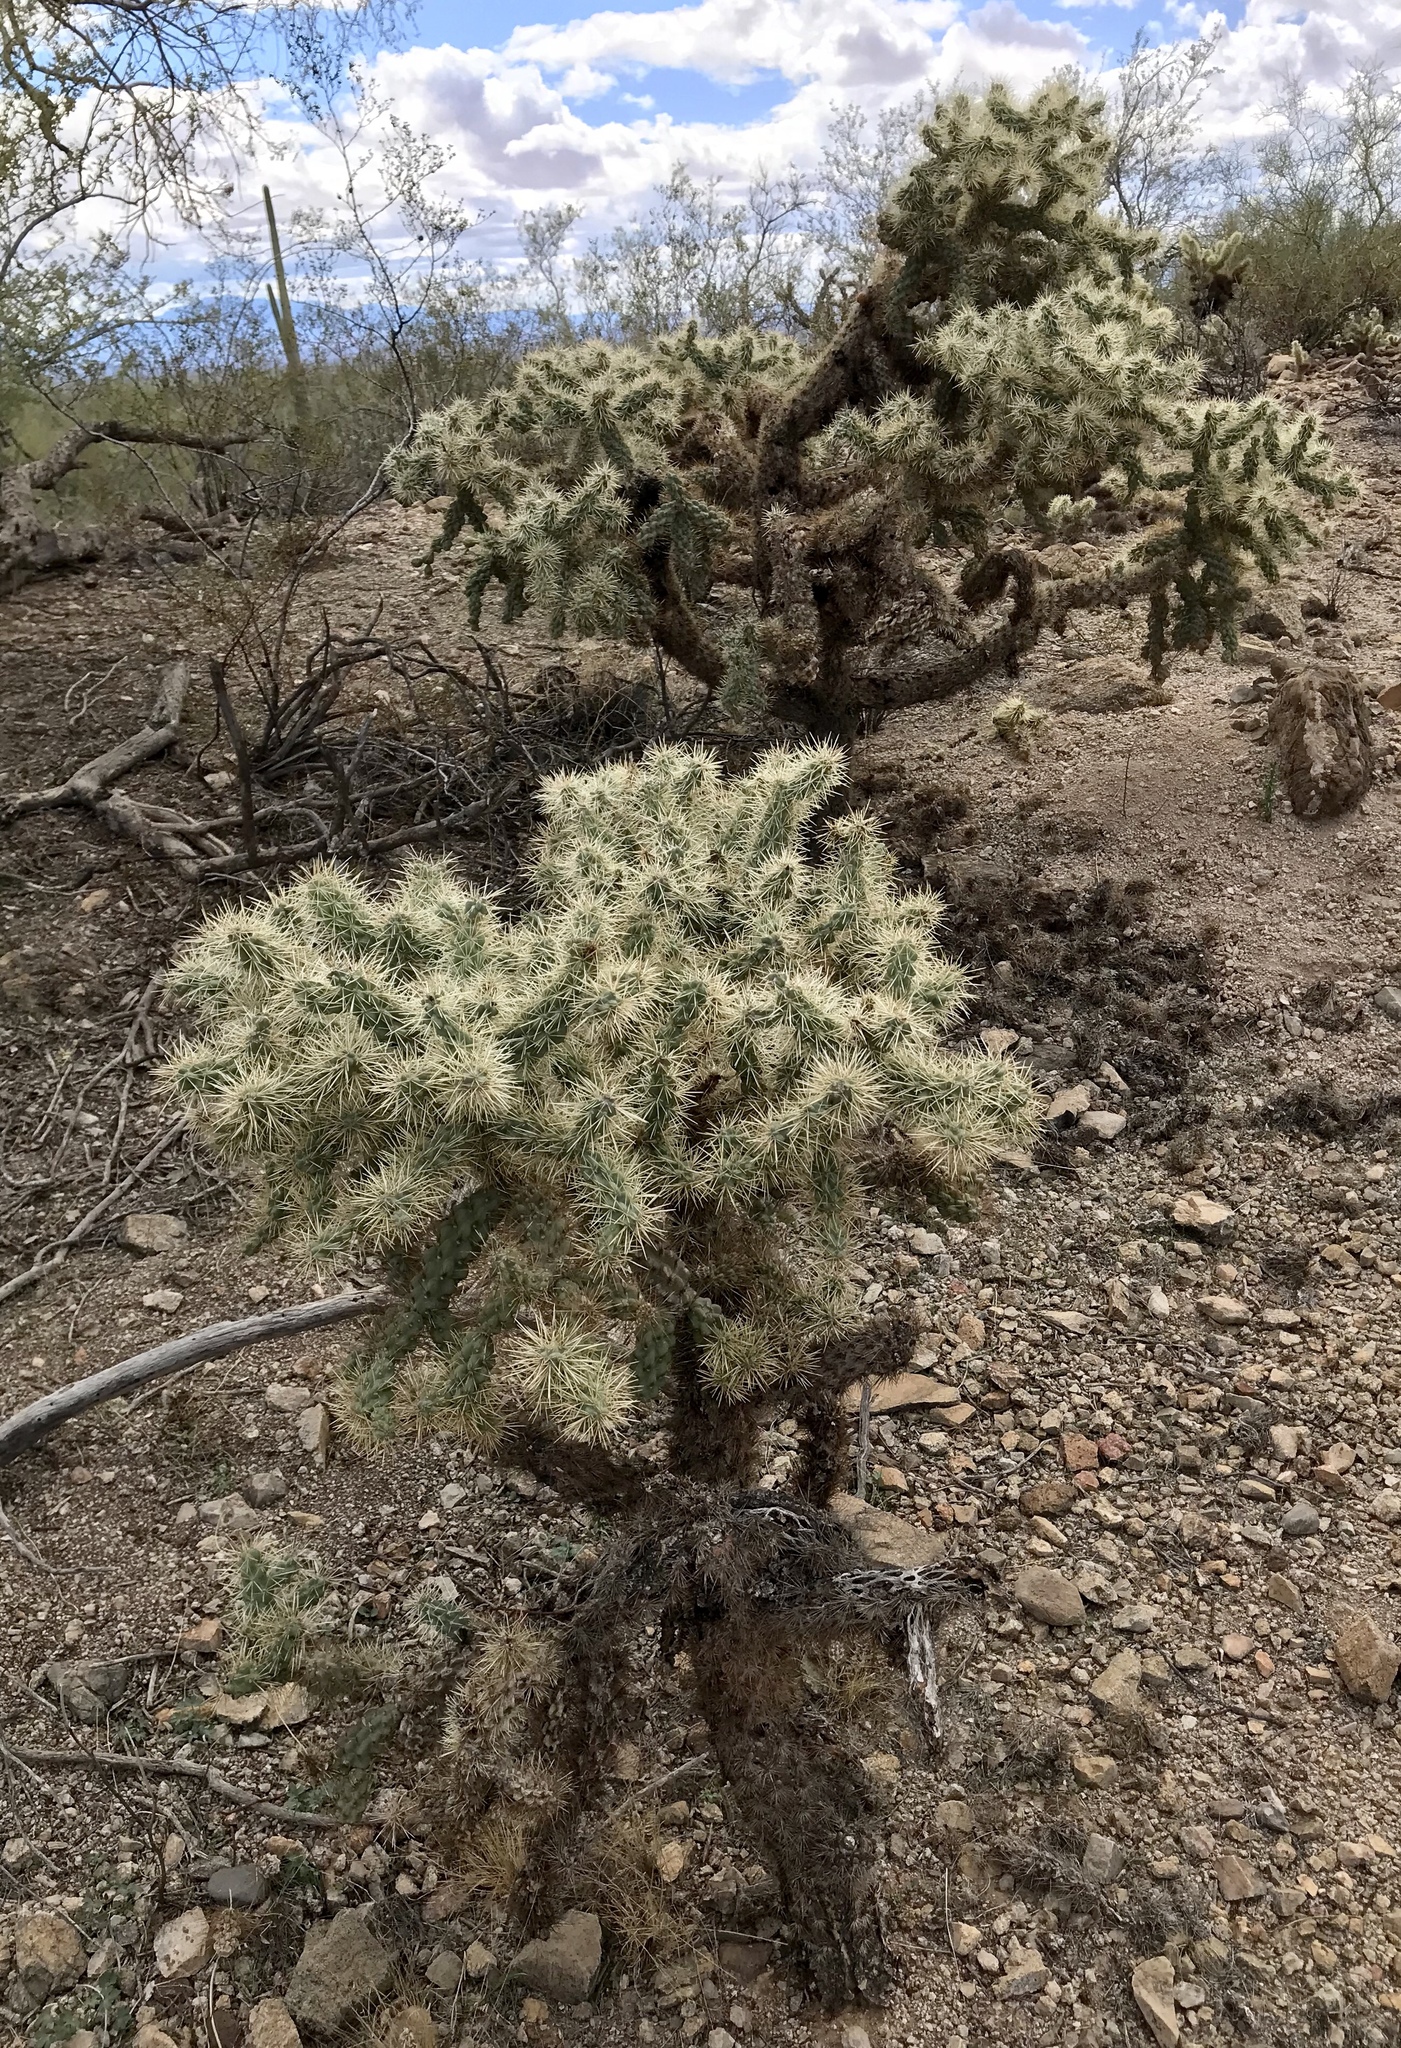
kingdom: Plantae
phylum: Tracheophyta
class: Magnoliopsida
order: Caryophyllales
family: Cactaceae
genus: Cylindropuntia
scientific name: Cylindropuntia fulgida
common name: Jumping cholla
